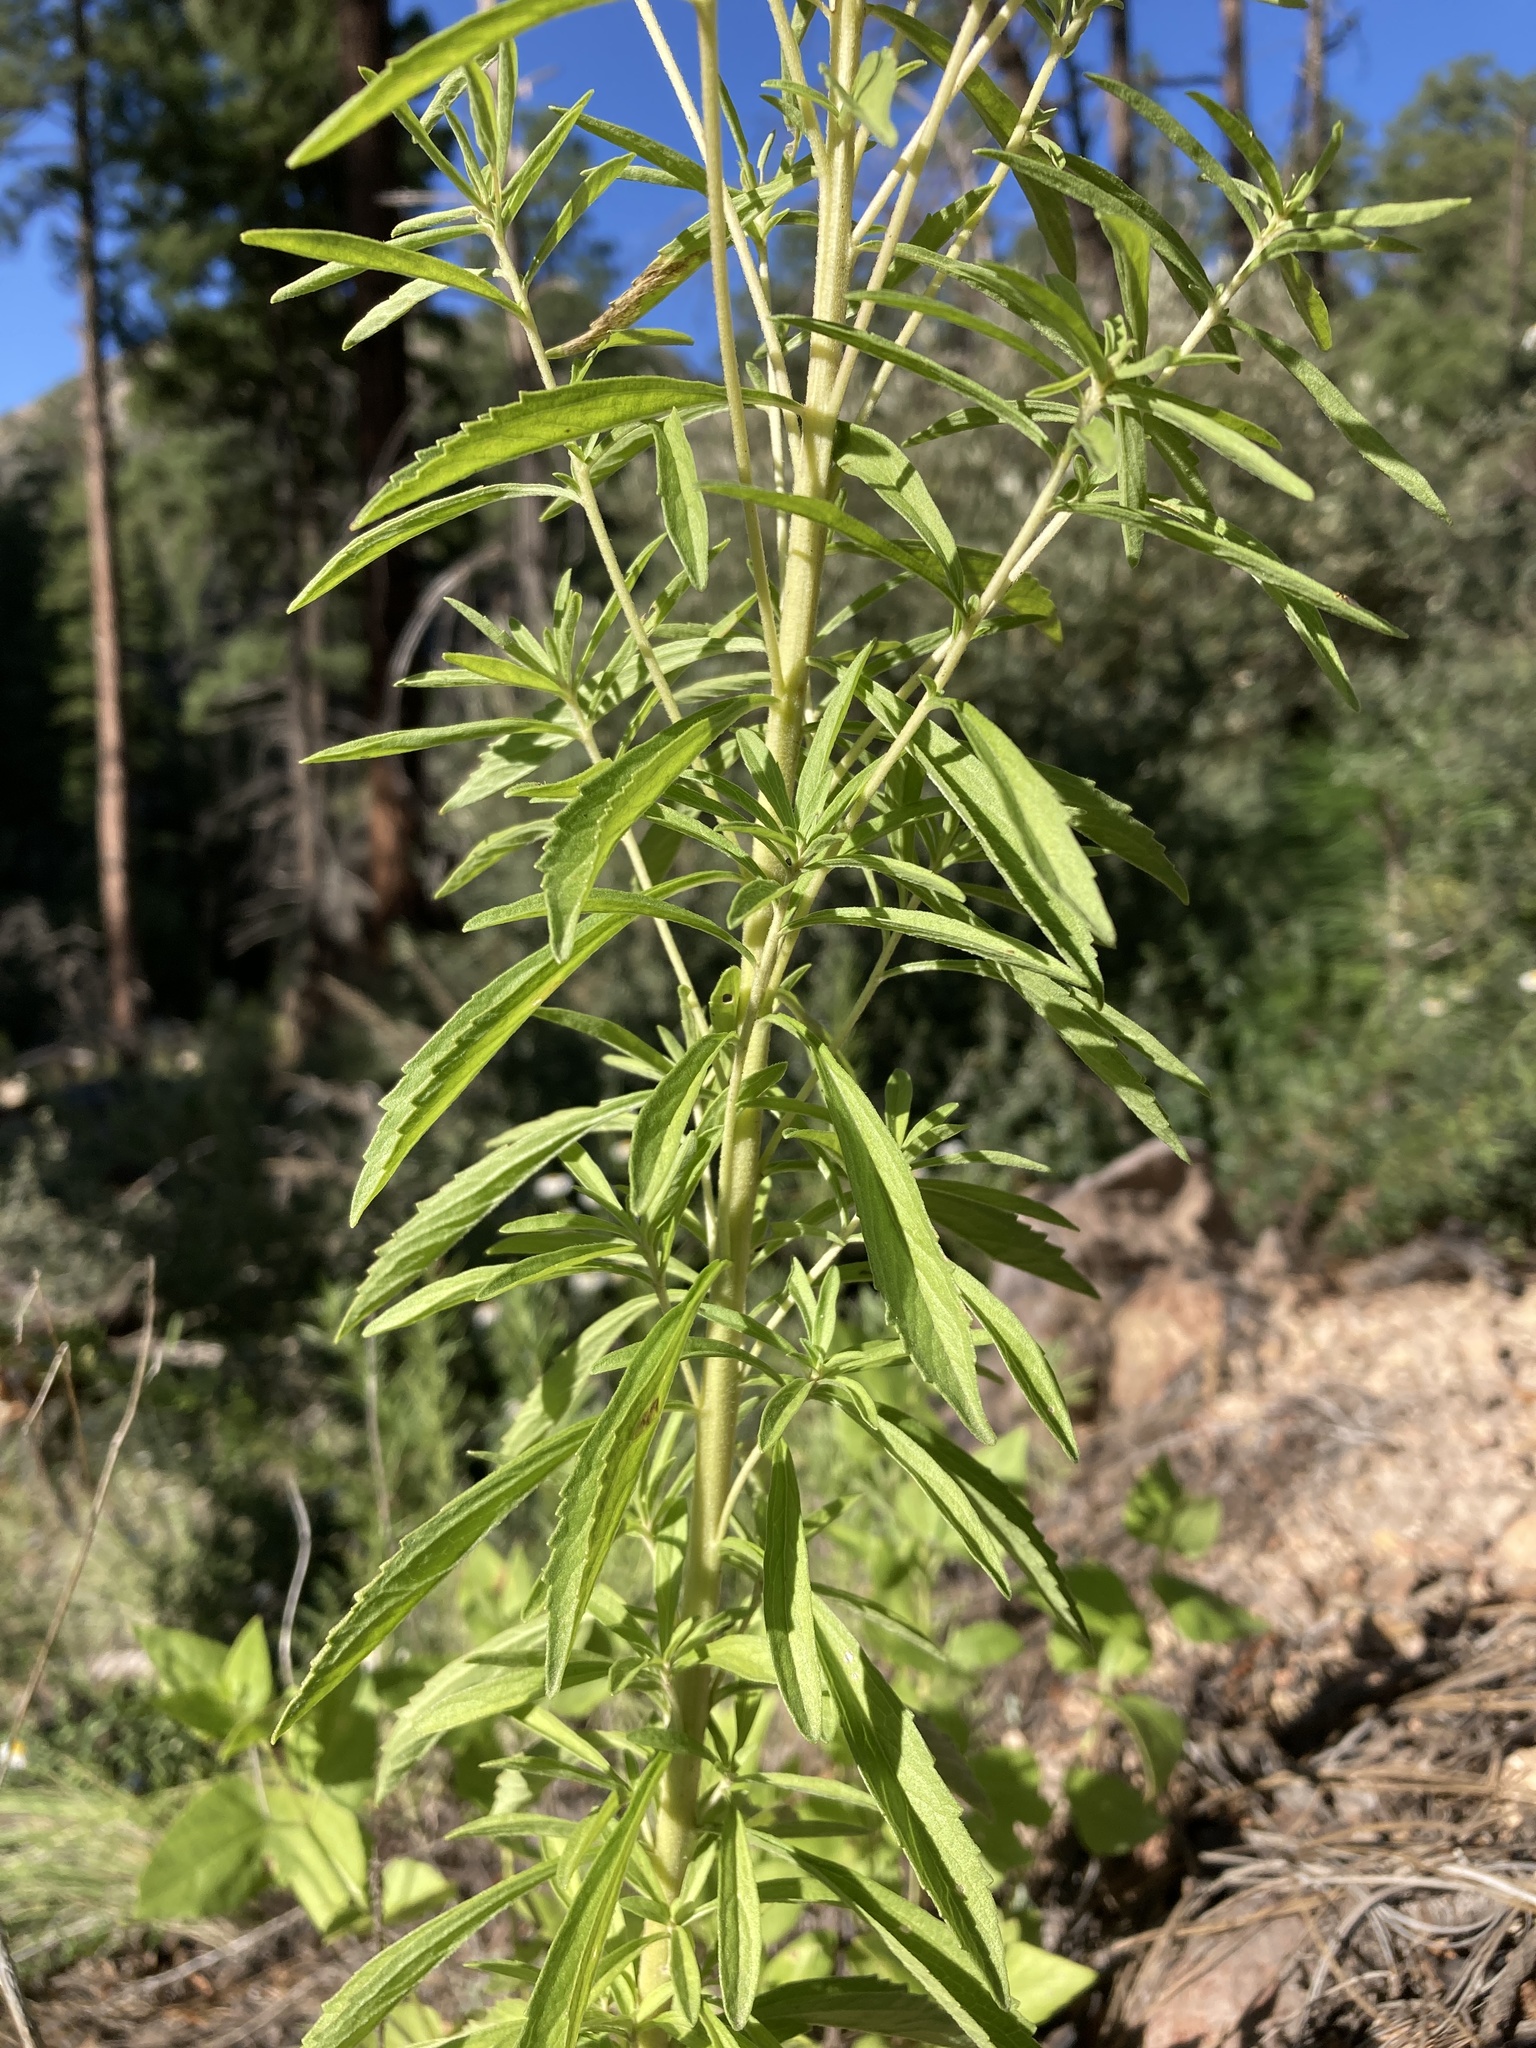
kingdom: Plantae
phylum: Tracheophyta
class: Magnoliopsida
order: Asterales
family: Asteraceae
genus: Stevia
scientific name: Stevia serrata
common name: Sawtooth candyleaf
